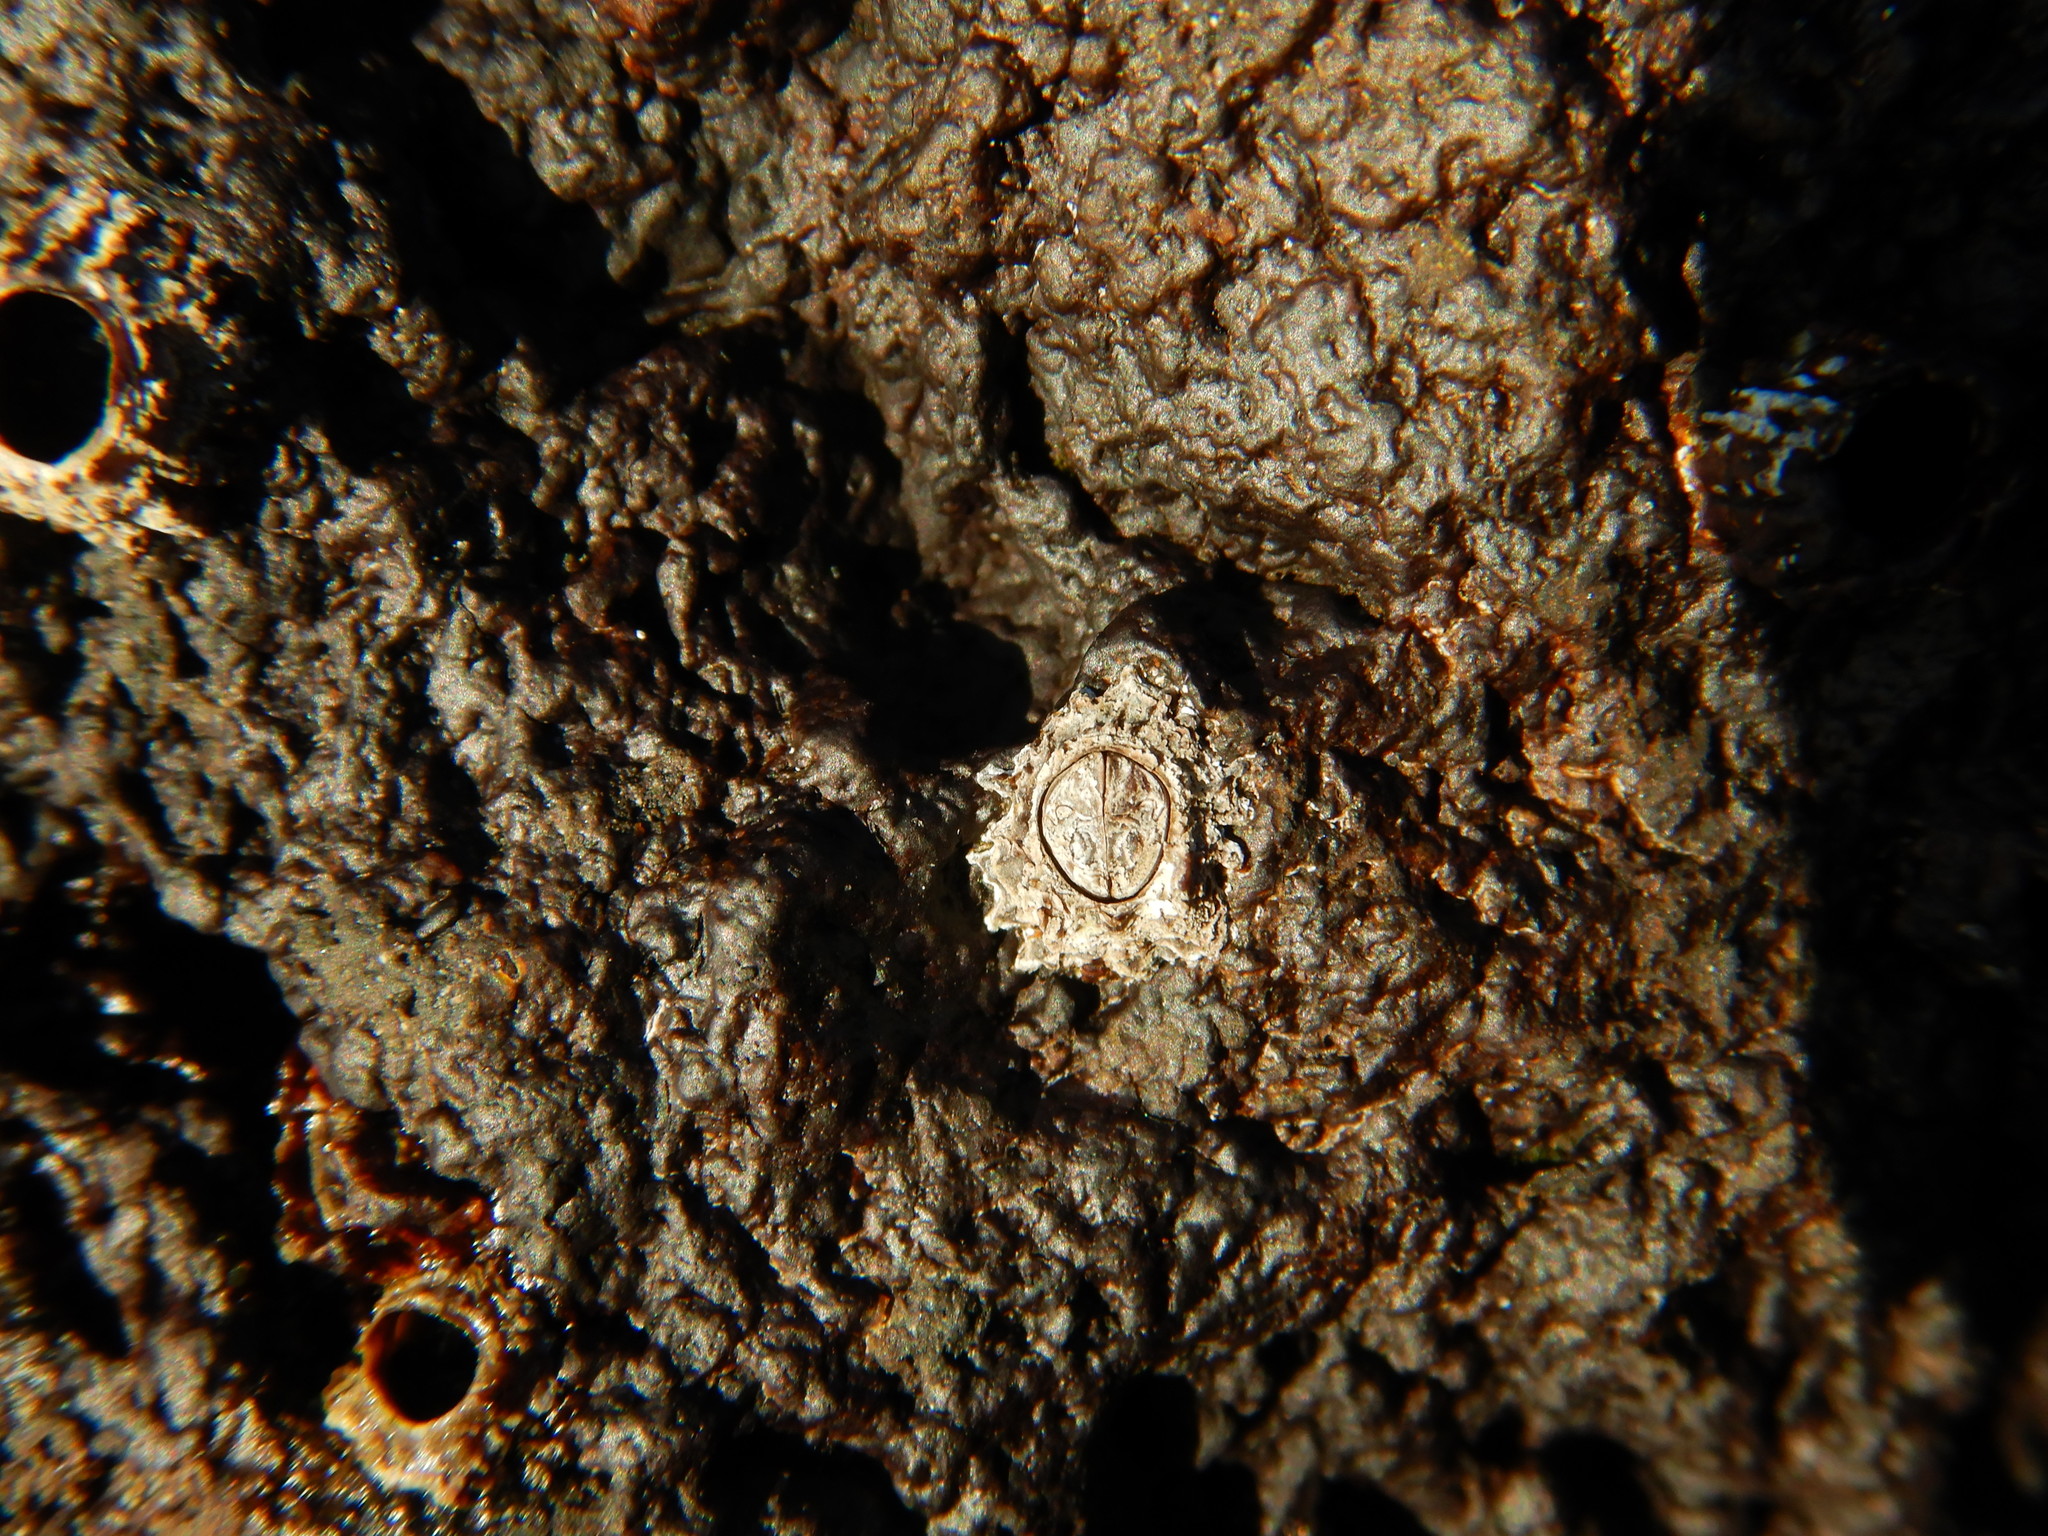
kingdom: Animalia
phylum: Arthropoda
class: Maxillopoda
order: Sessilia
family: Chthamalidae
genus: Chthamalus
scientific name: Chthamalus stellatus
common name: Poli's stellate barnacle
